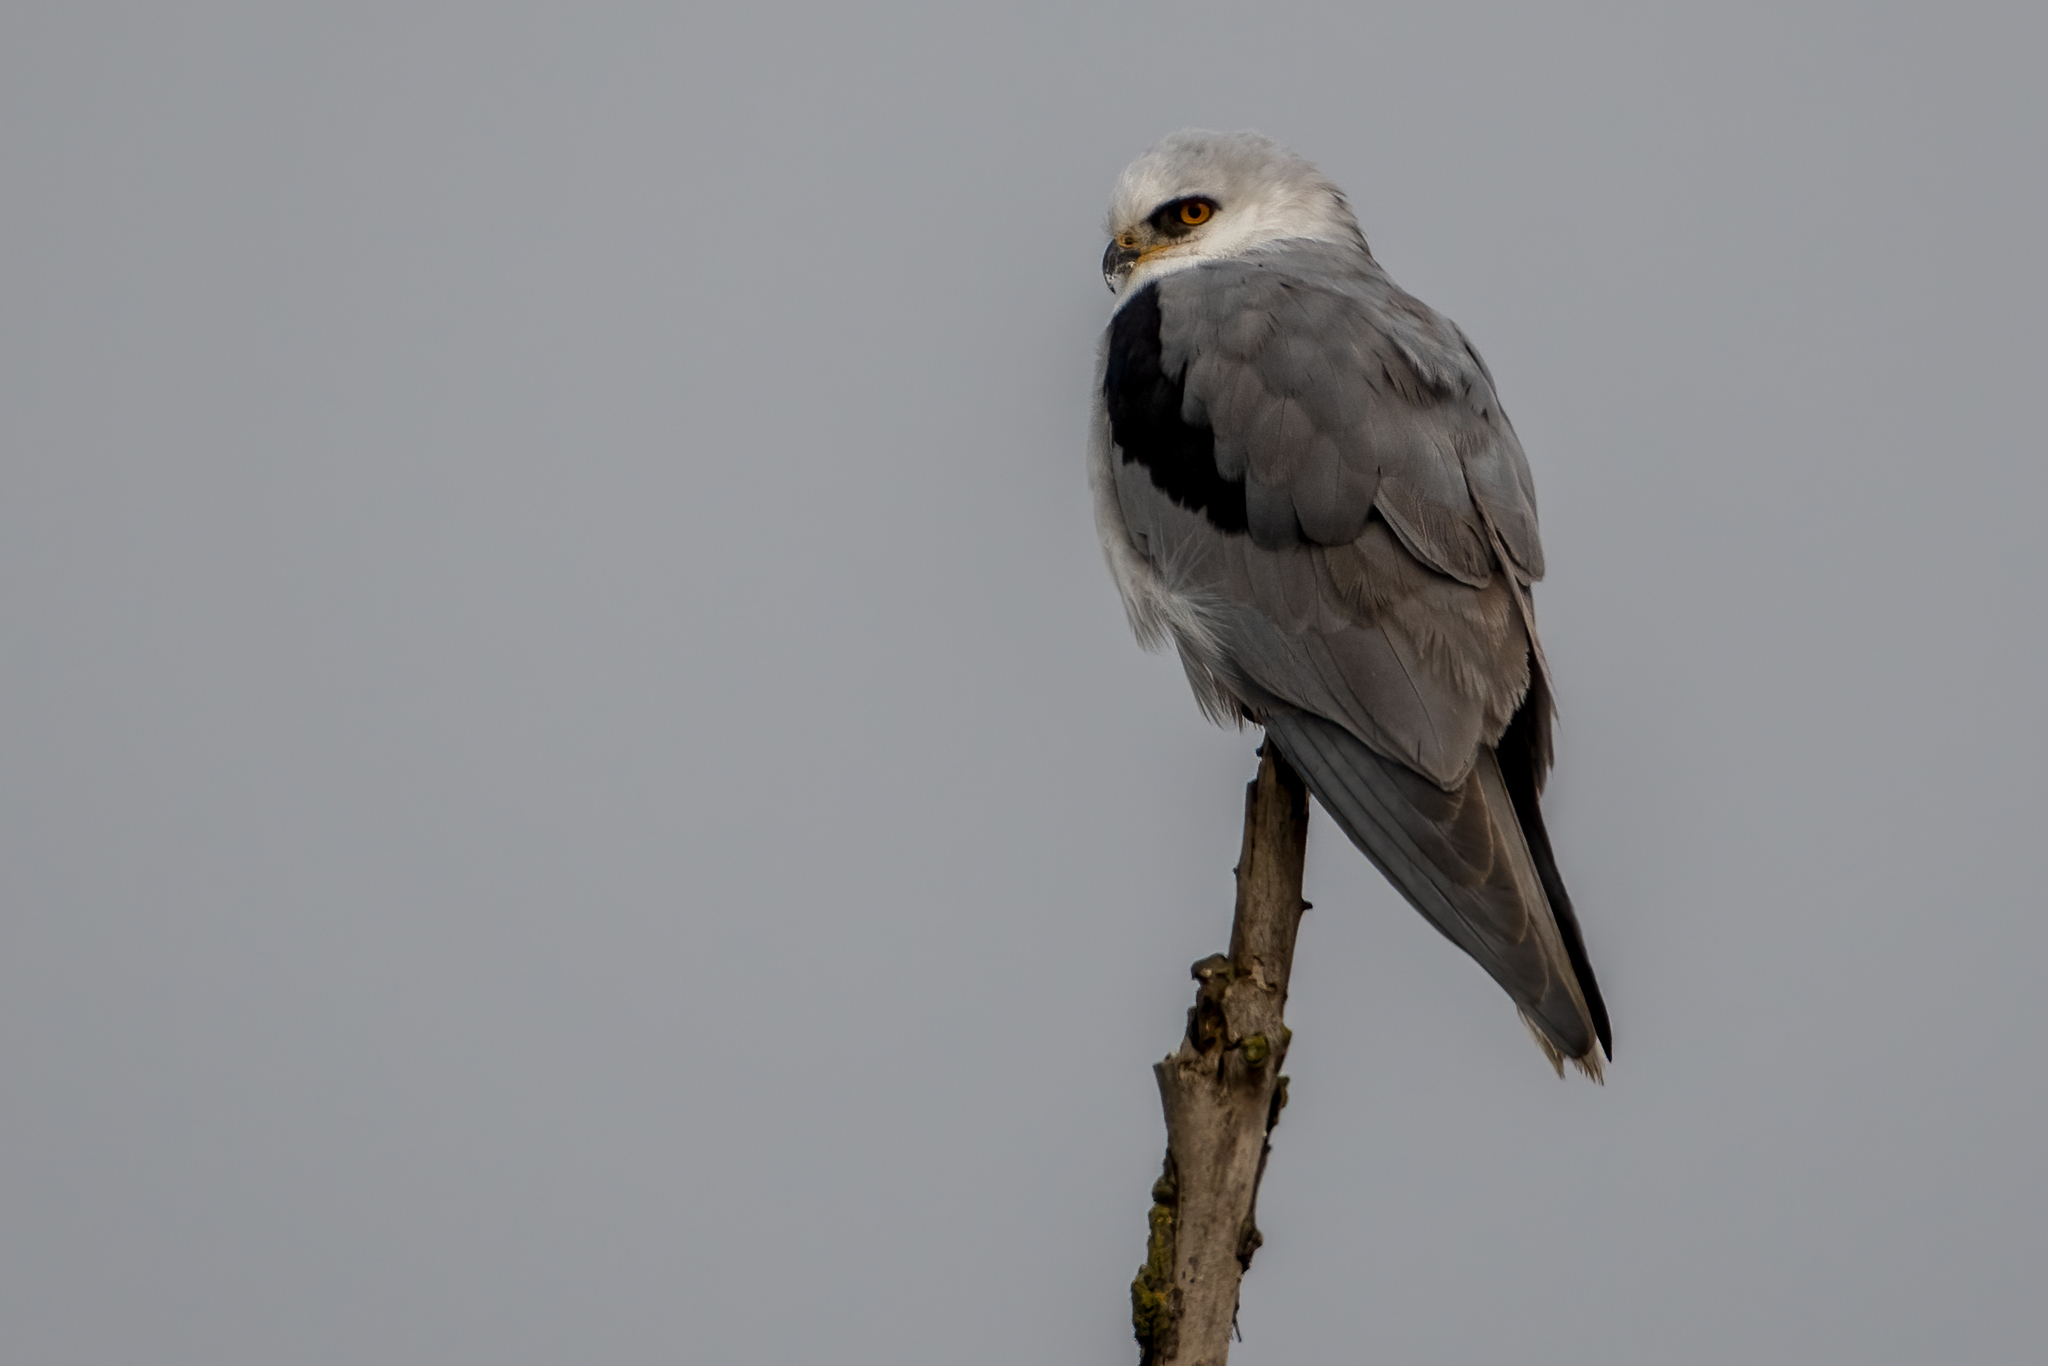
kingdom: Animalia
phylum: Chordata
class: Aves
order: Accipitriformes
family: Accipitridae
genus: Elanus
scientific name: Elanus leucurus
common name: White-tailed kite
